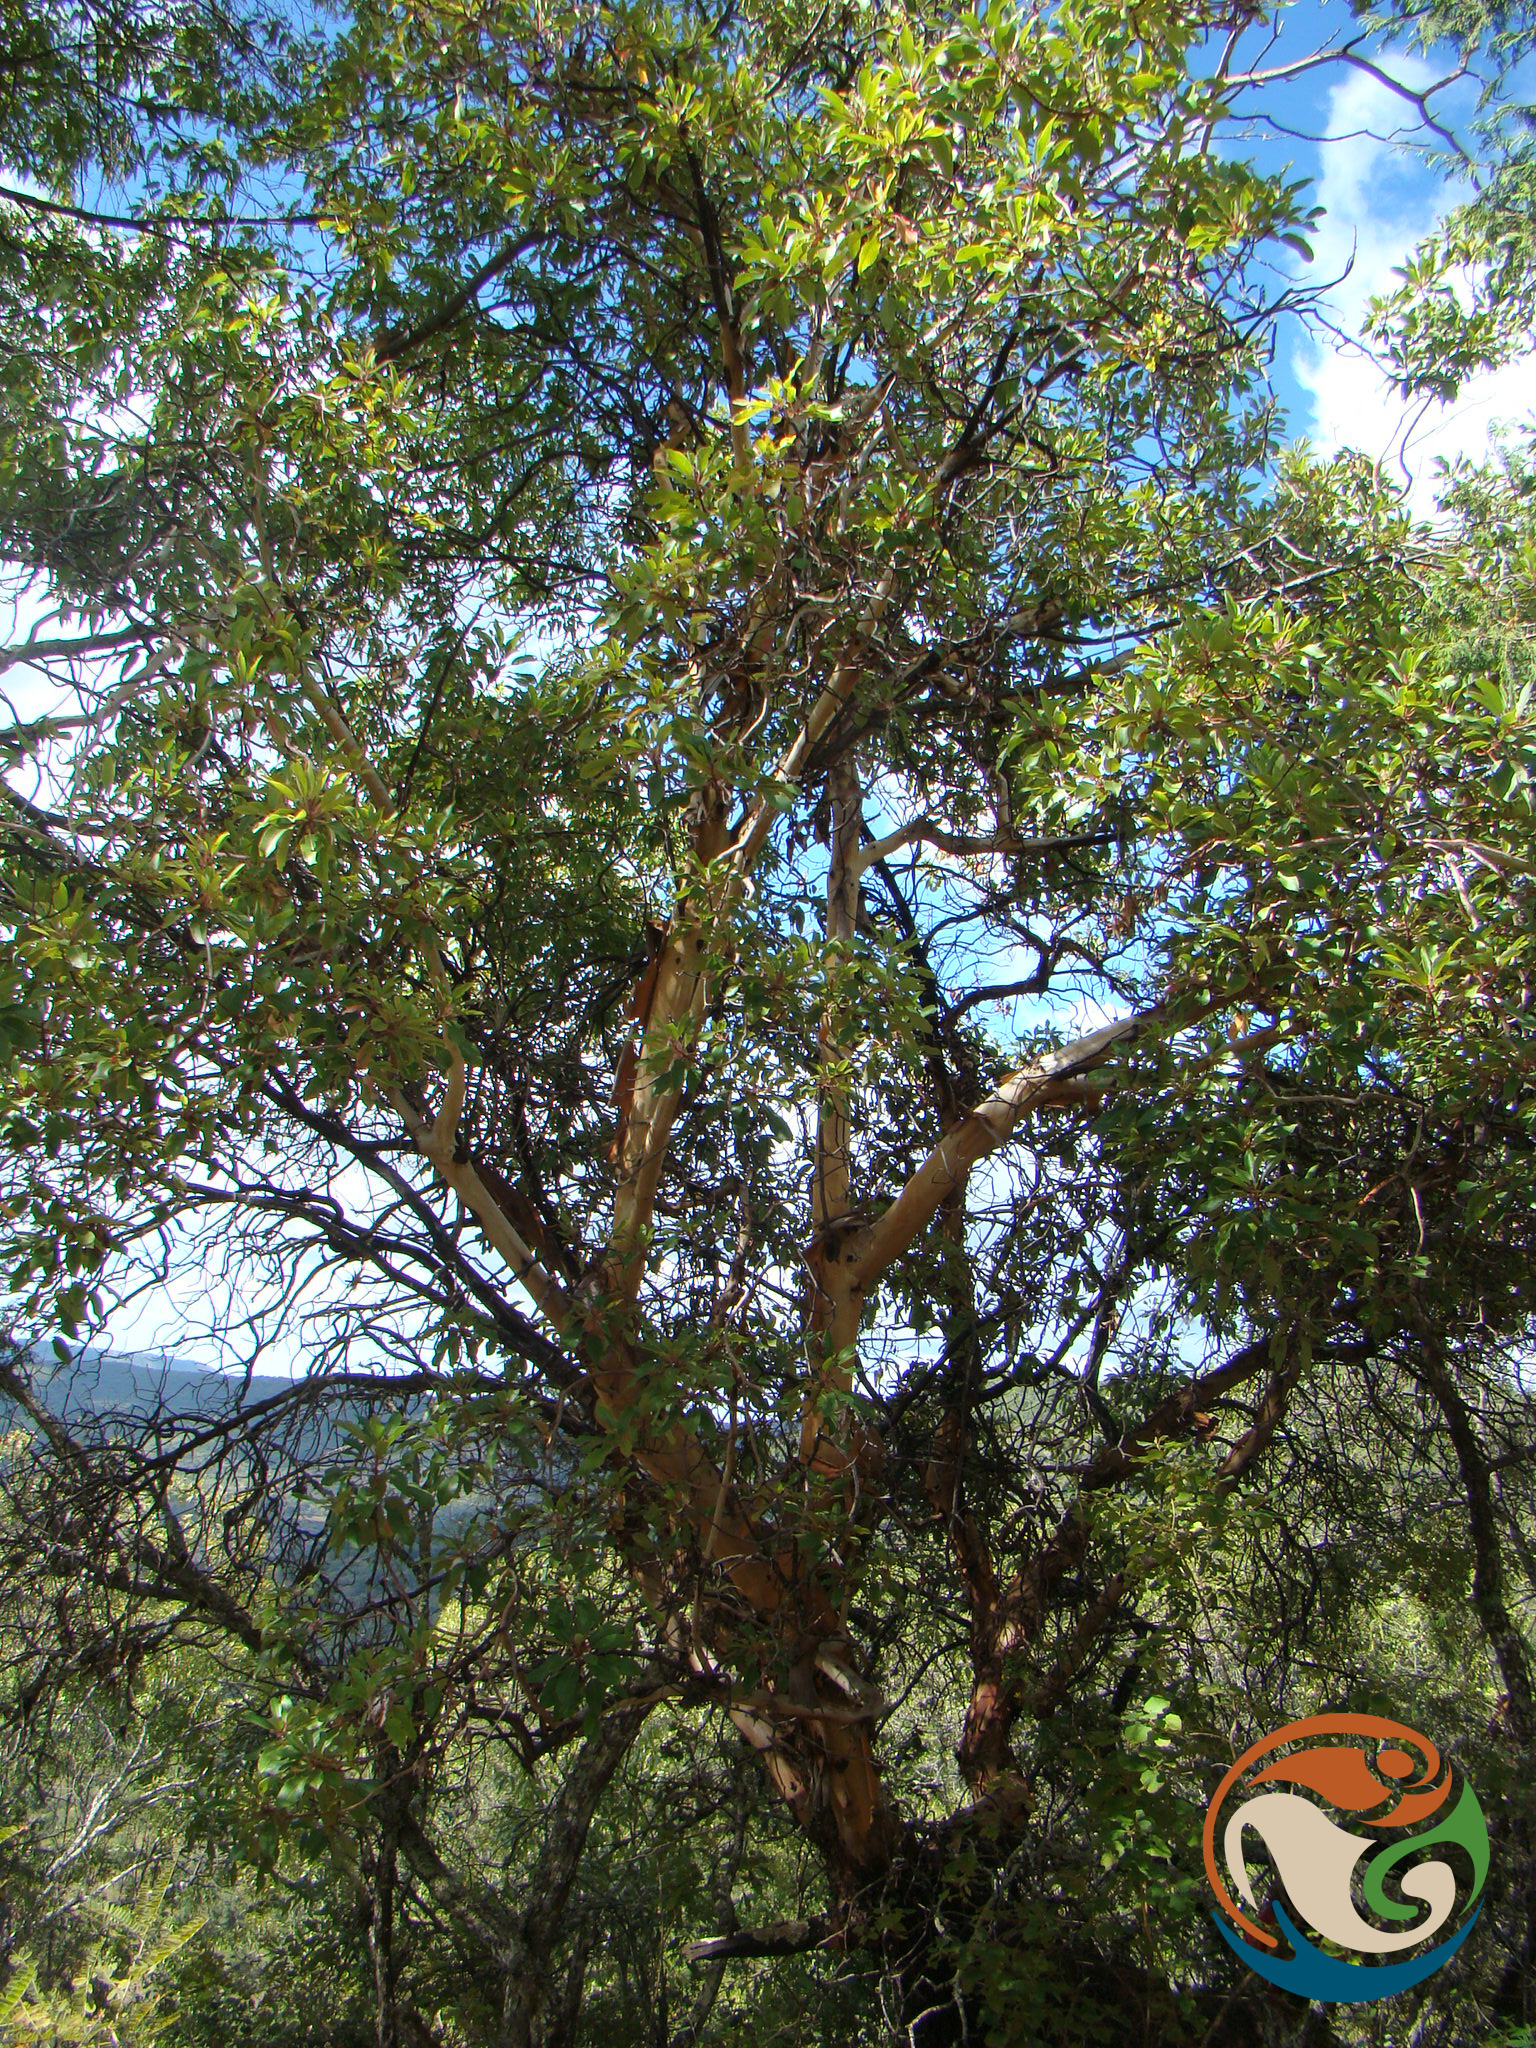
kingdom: Plantae
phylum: Tracheophyta
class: Magnoliopsida
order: Ericales
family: Ericaceae
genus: Arbutus
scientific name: Arbutus xalapensis
